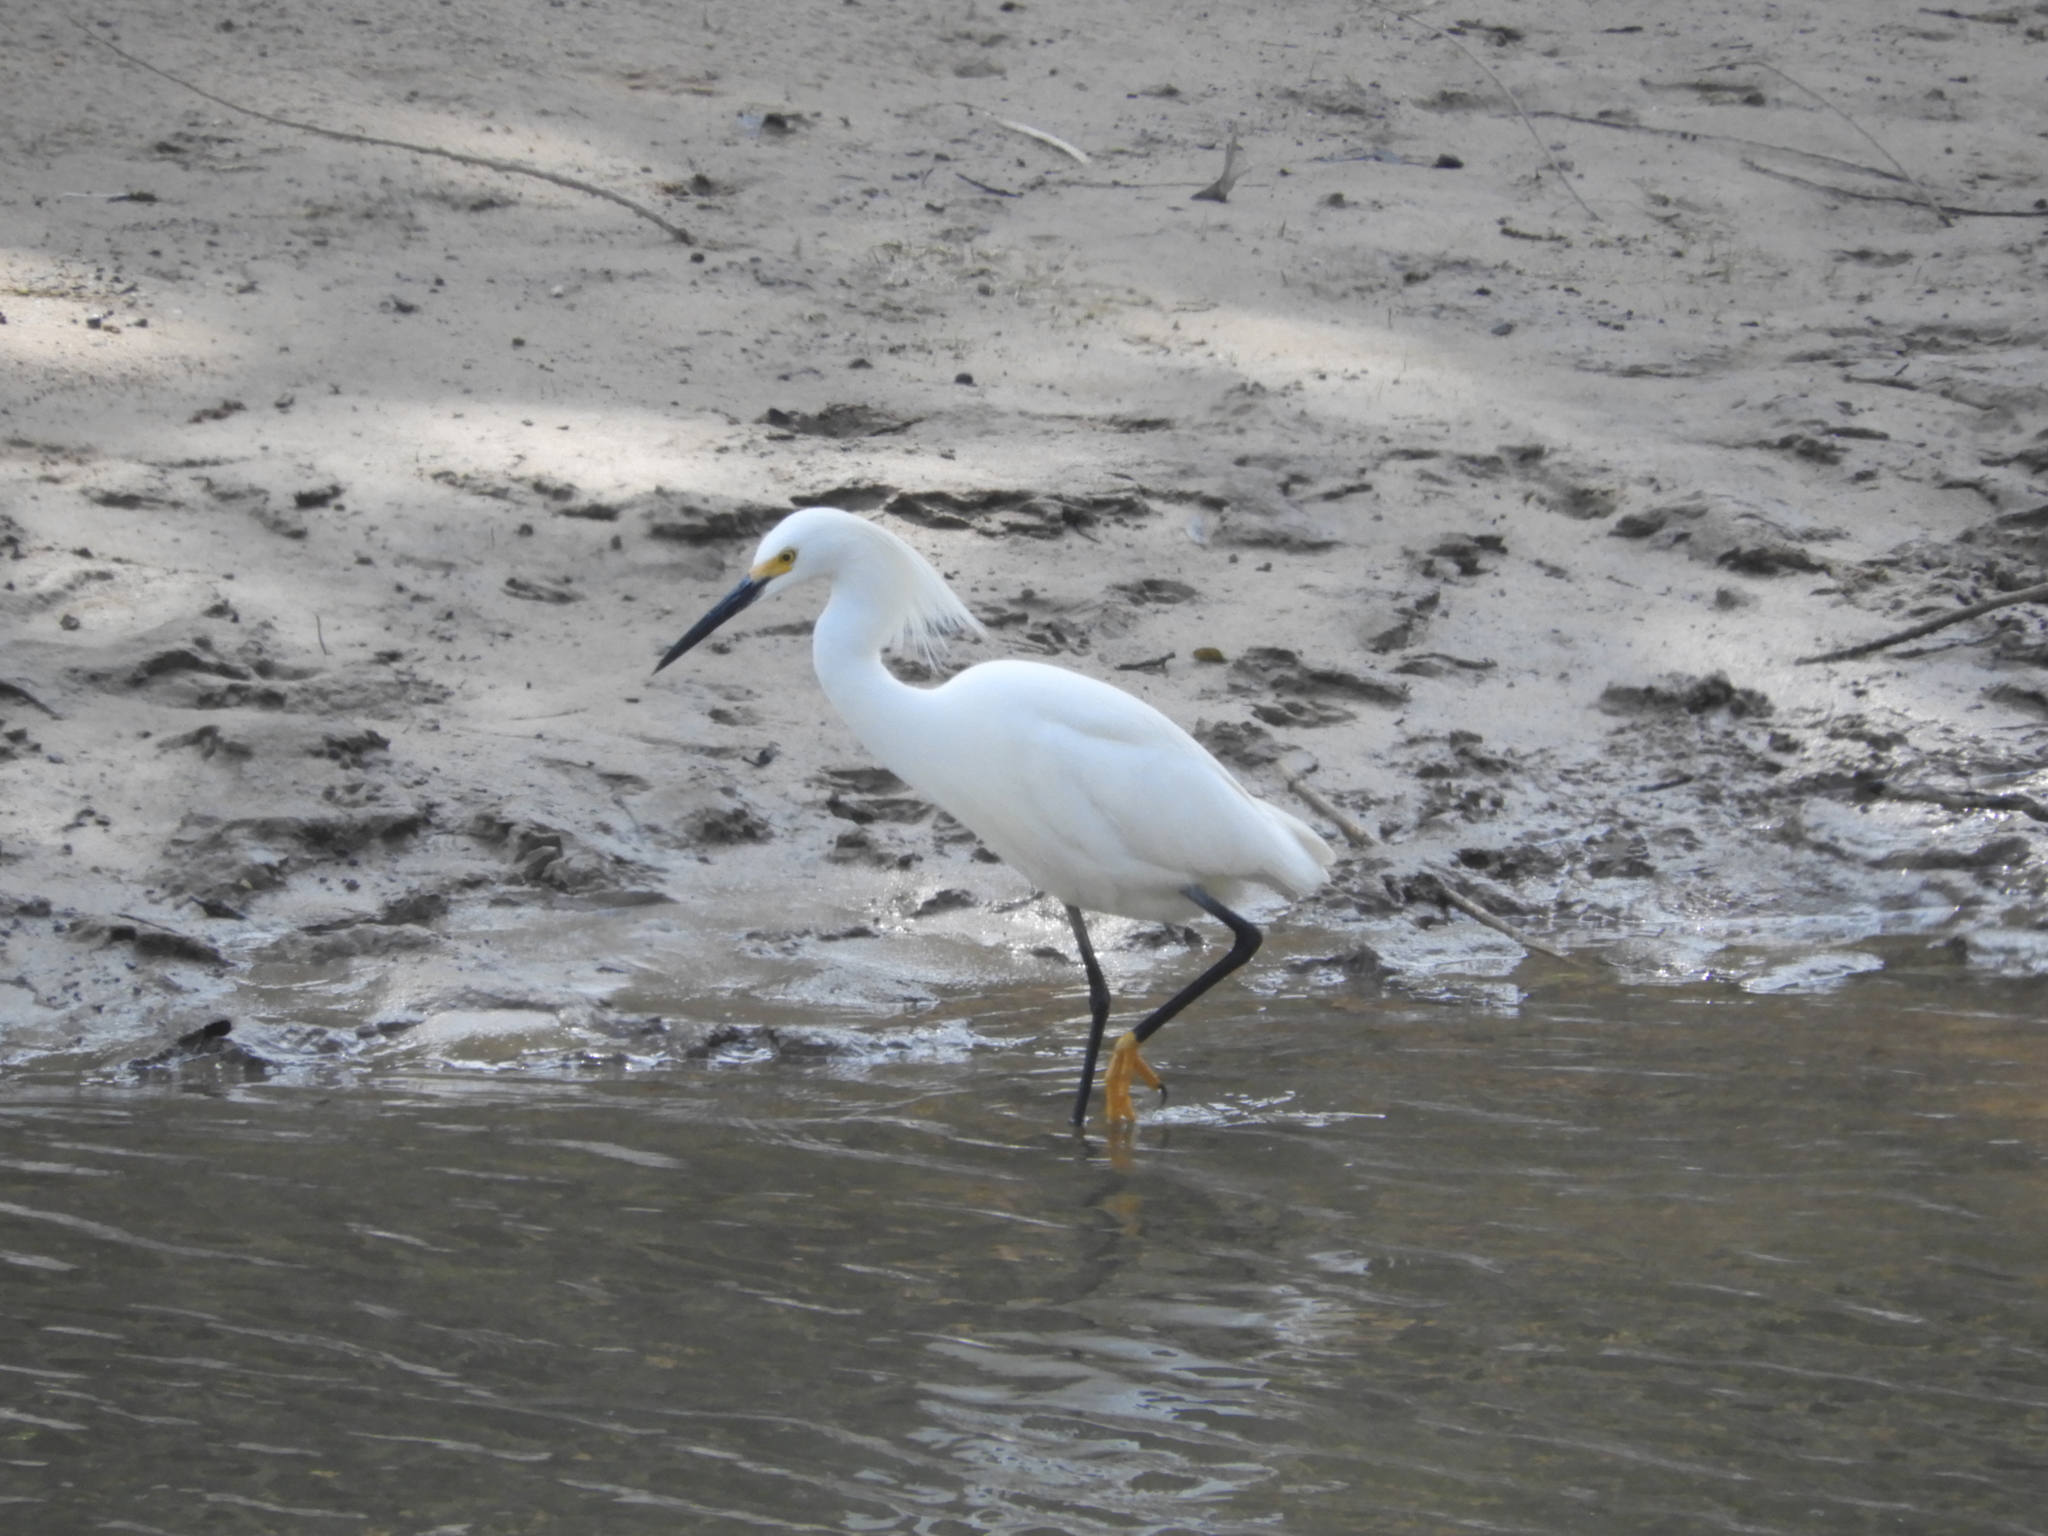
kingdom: Animalia
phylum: Chordata
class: Aves
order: Pelecaniformes
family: Ardeidae
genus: Egretta
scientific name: Egretta thula
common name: Snowy egret
